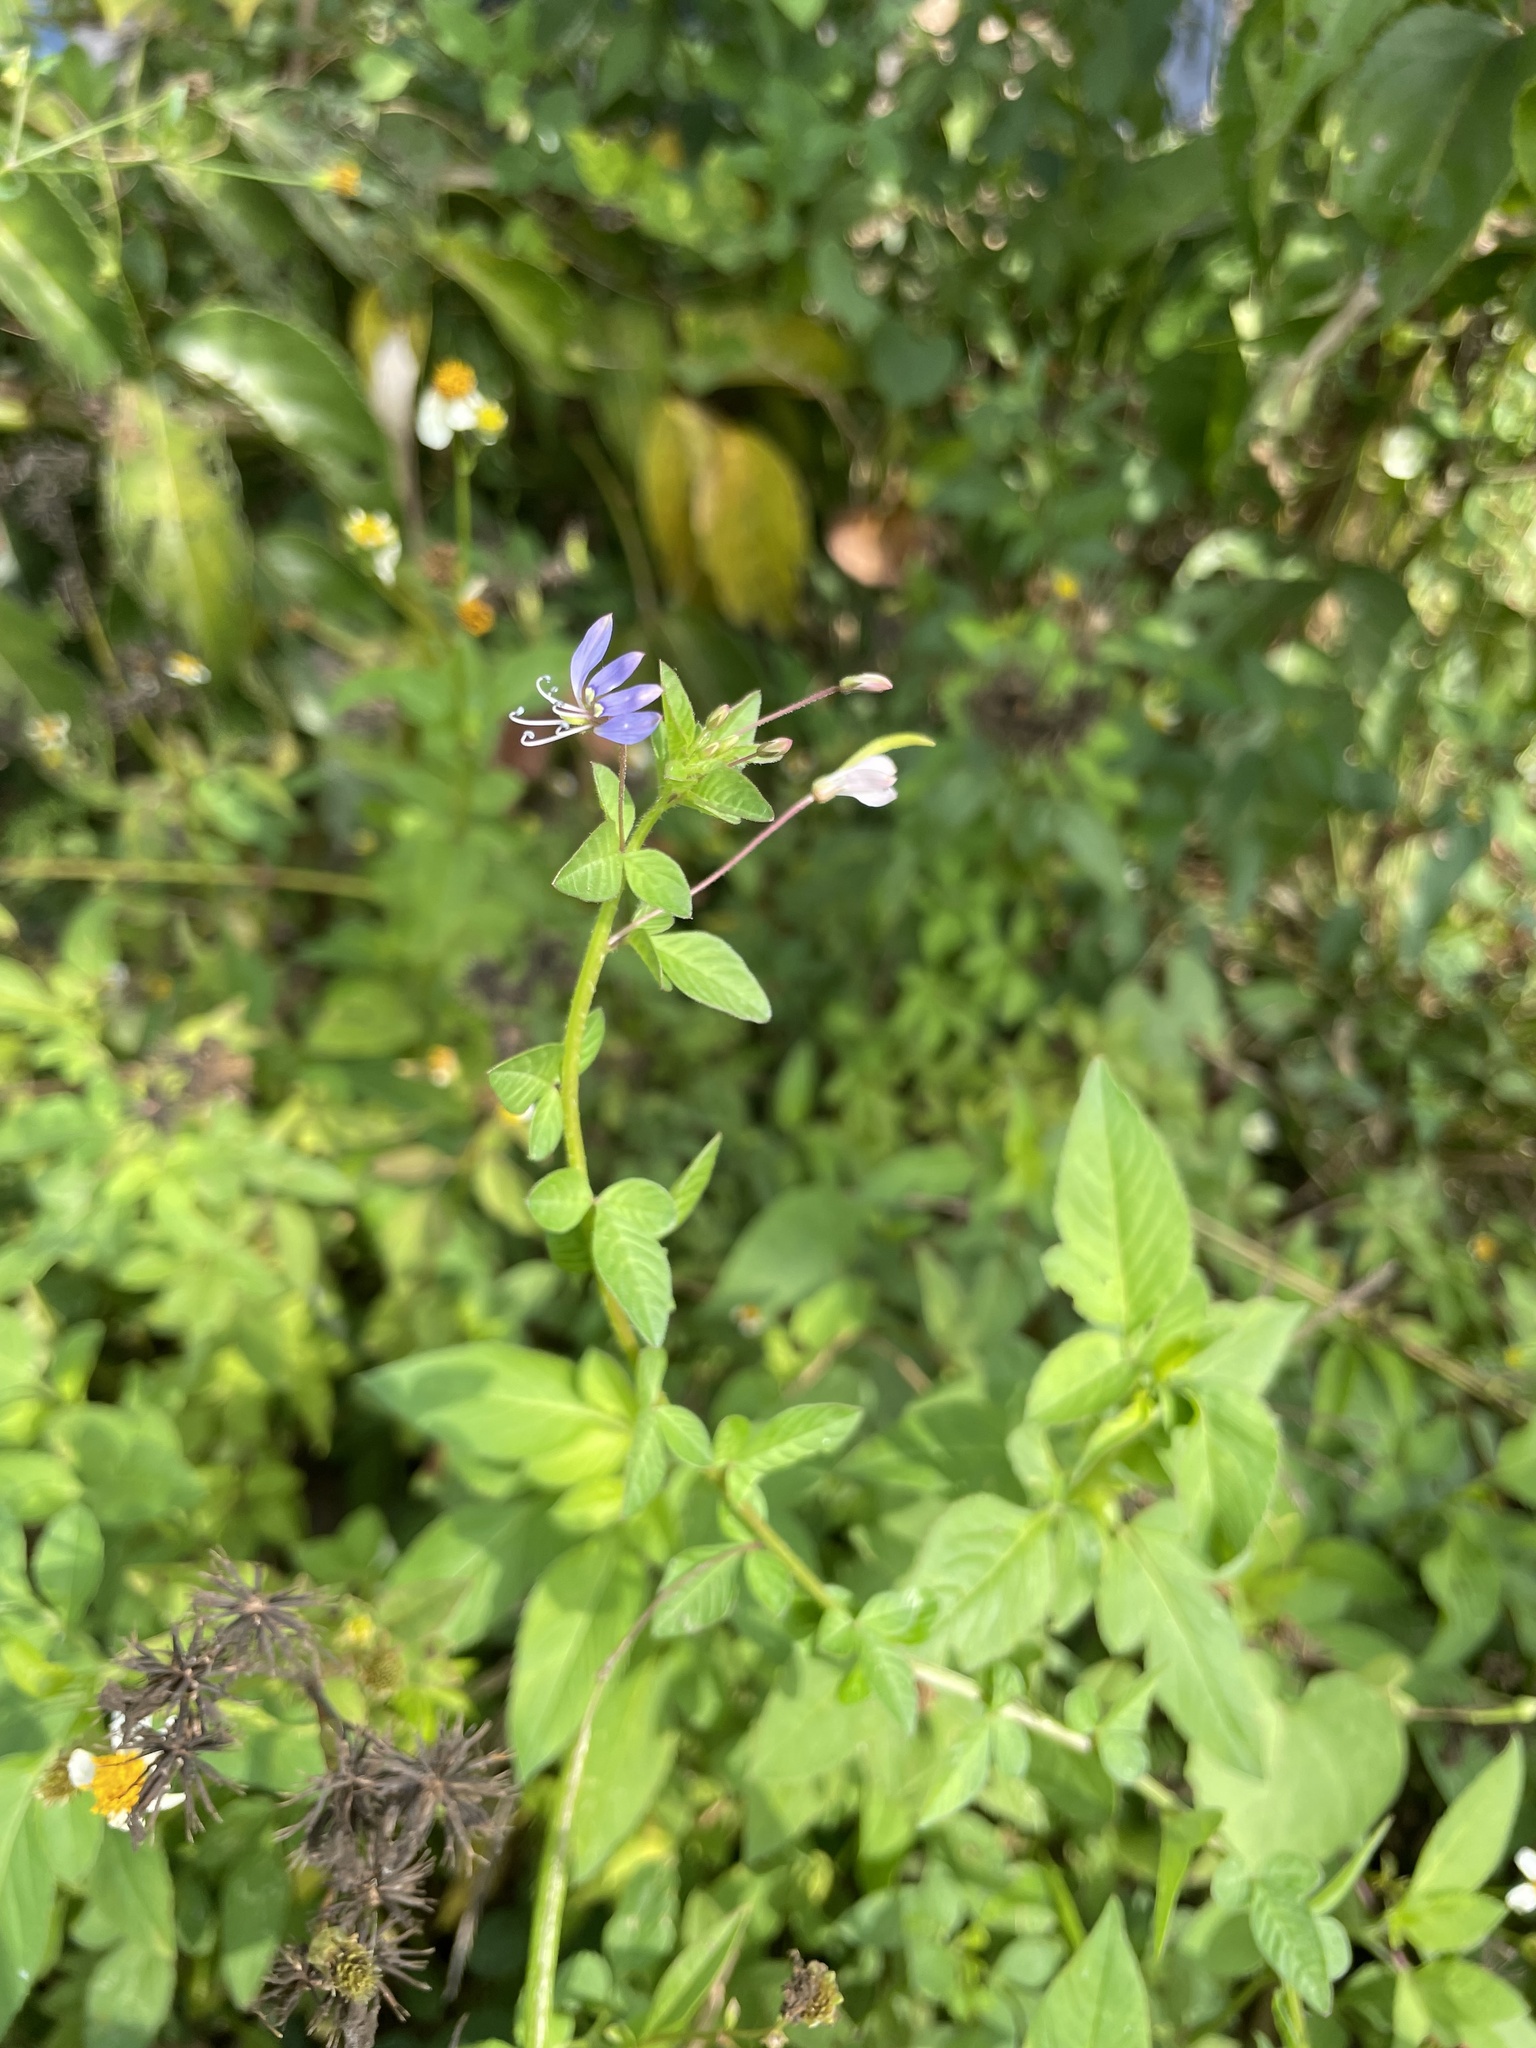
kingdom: Plantae
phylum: Tracheophyta
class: Magnoliopsida
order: Brassicales
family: Cleomaceae
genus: Sieruela
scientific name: Sieruela rutidosperma
